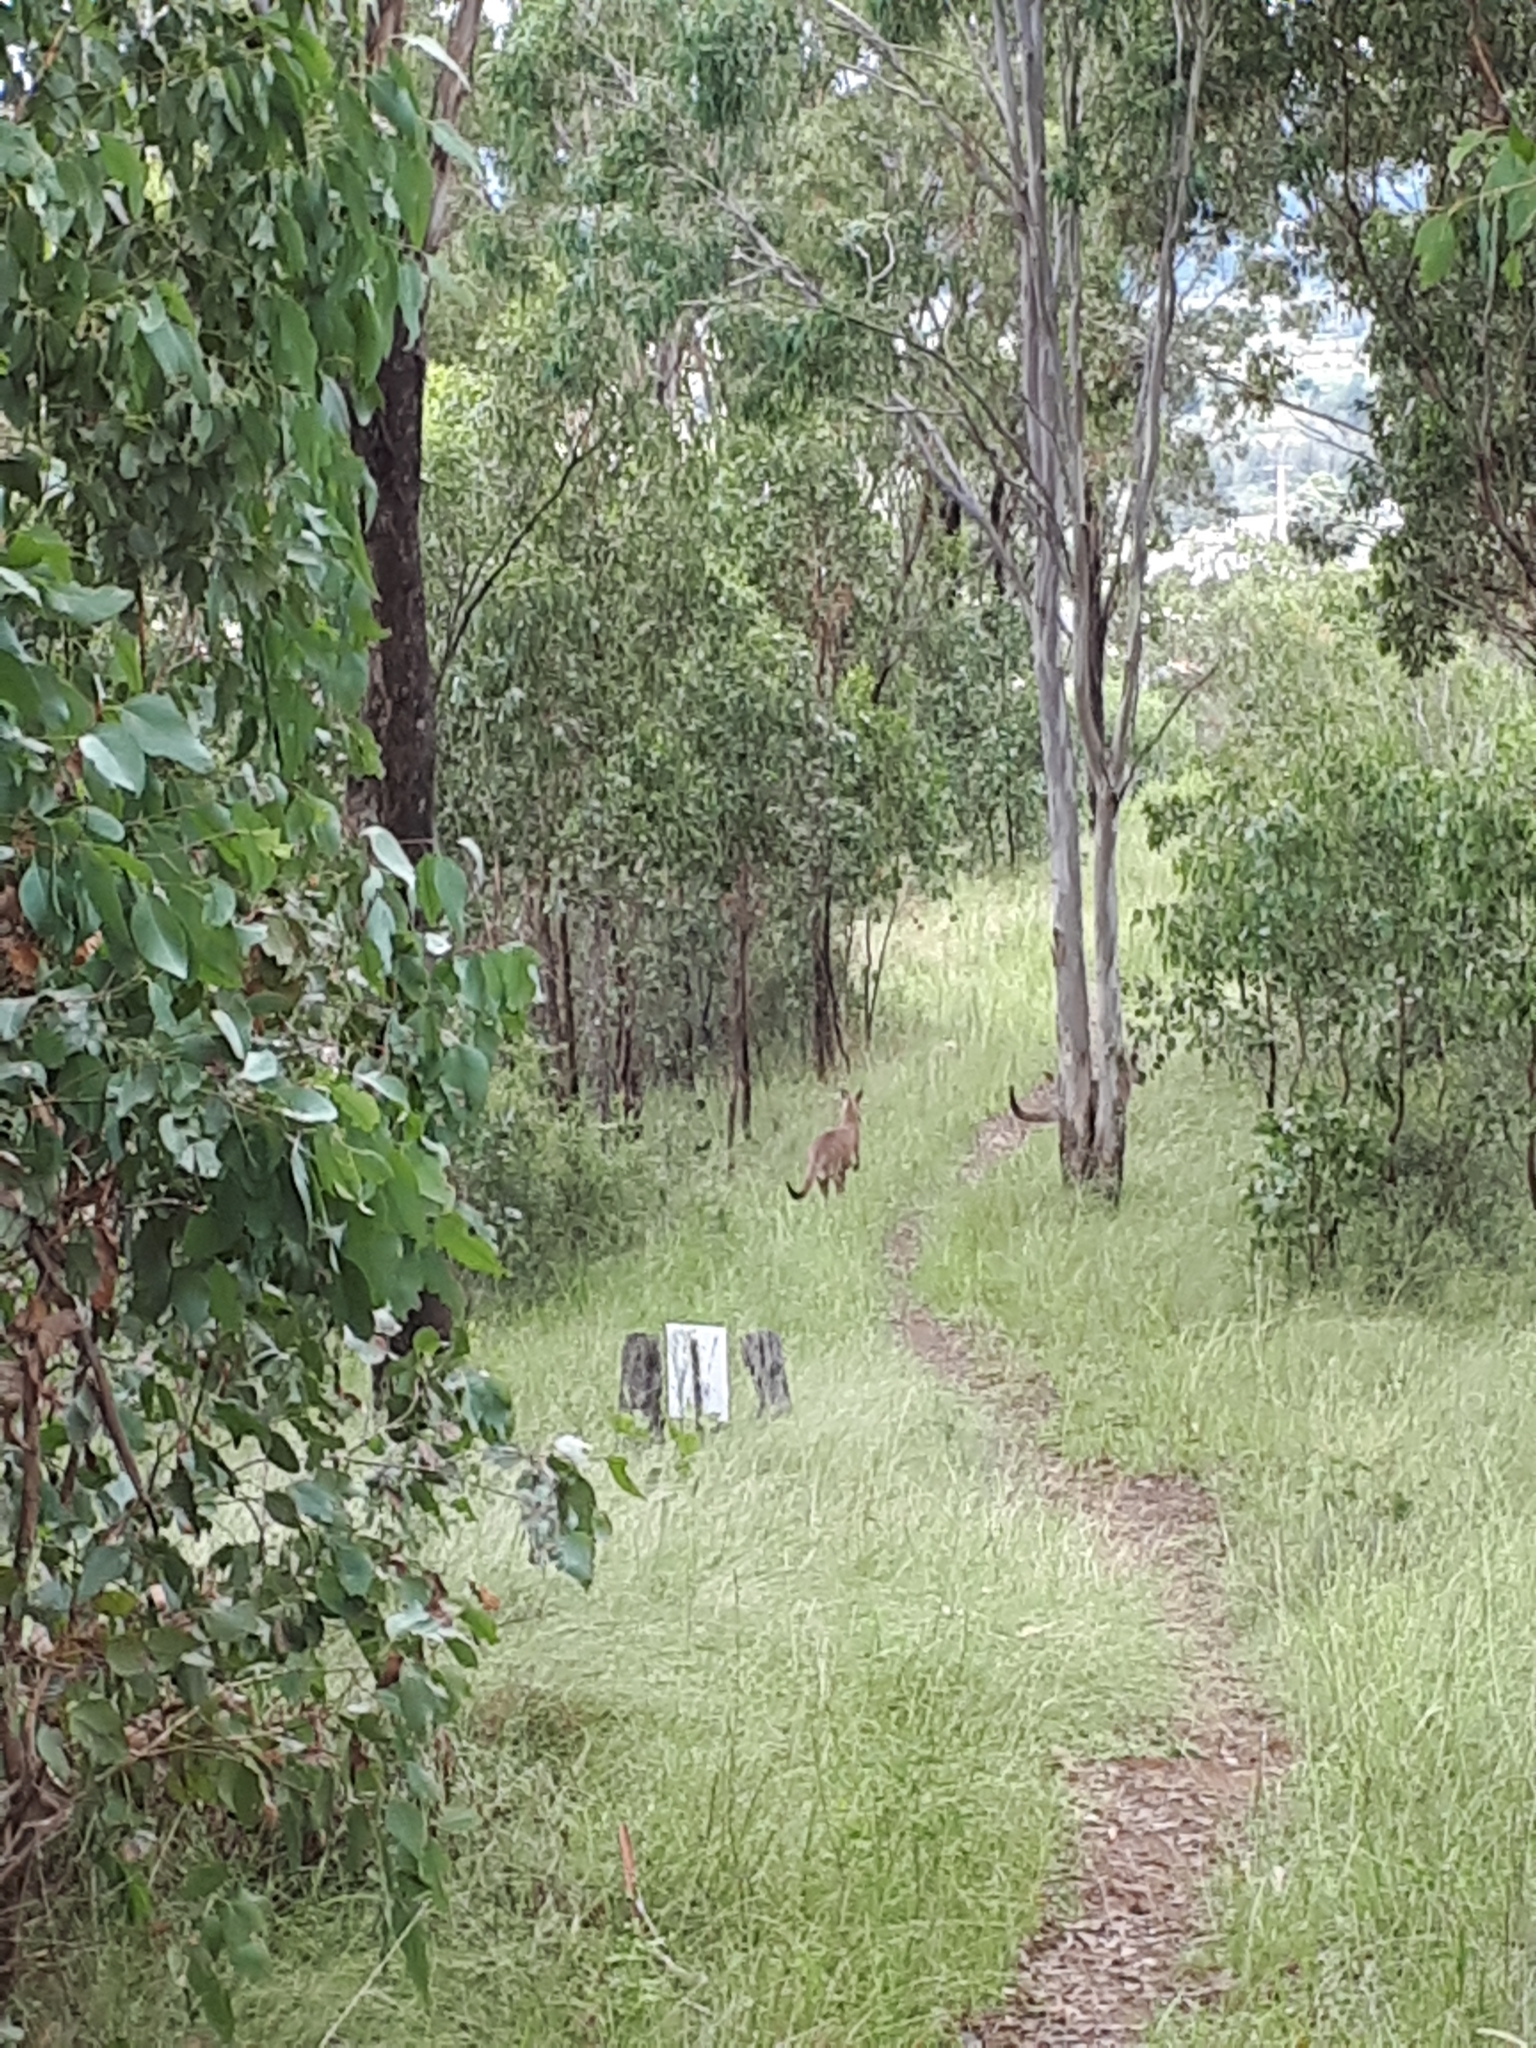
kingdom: Animalia
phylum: Chordata
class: Mammalia
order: Diprotodontia
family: Macropodidae
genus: Macropus
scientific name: Macropus giganteus
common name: Eastern grey kangaroo
